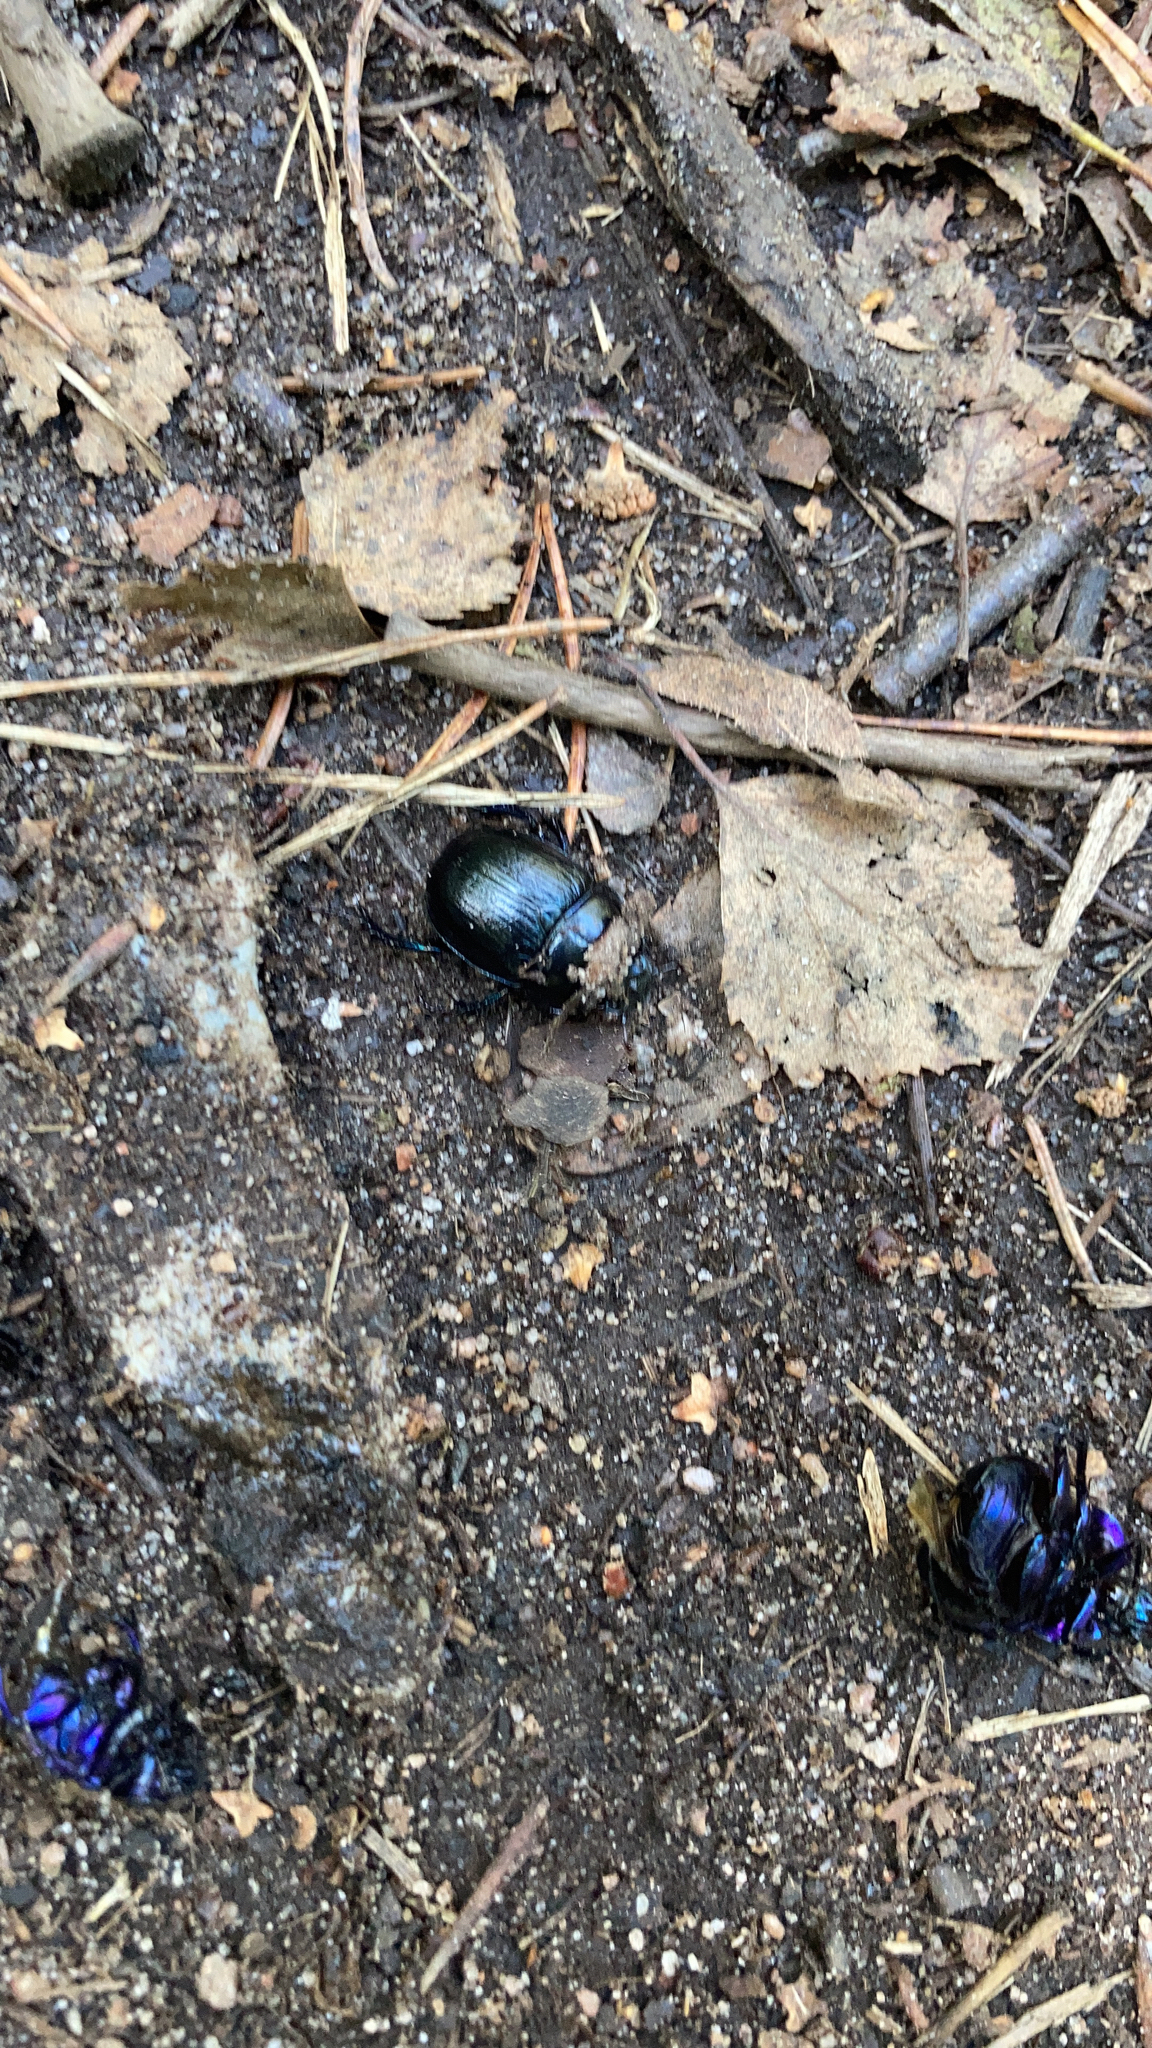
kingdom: Animalia
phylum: Arthropoda
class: Insecta
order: Coleoptera
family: Geotrupidae
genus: Anoplotrupes
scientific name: Anoplotrupes stercorosus
